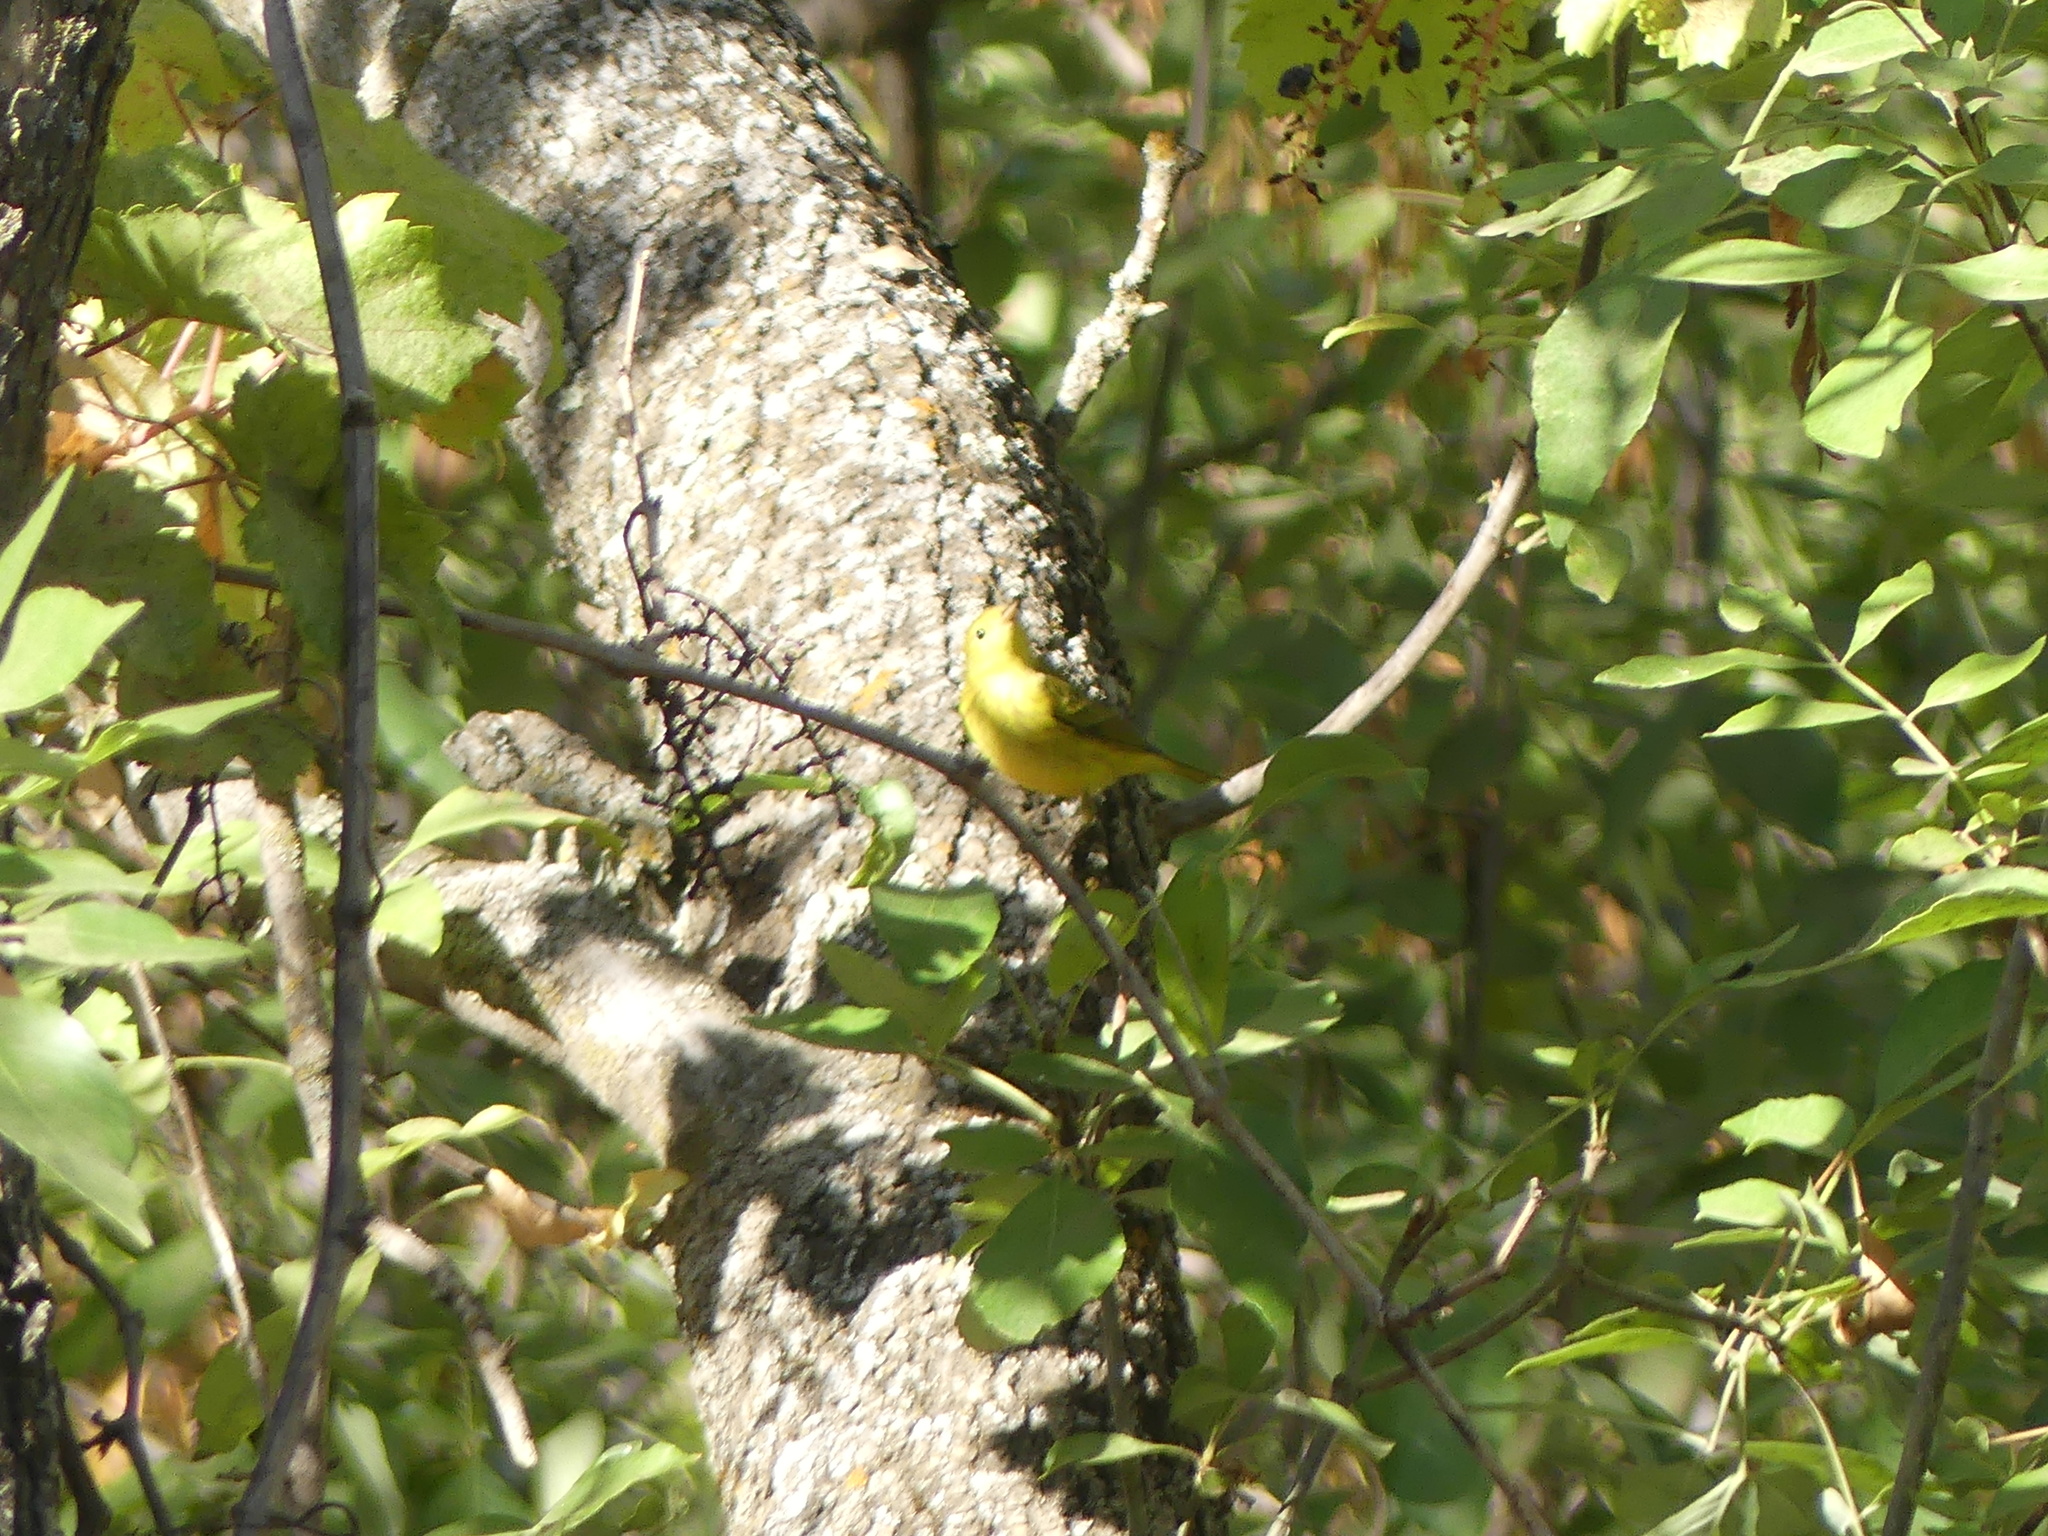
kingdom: Animalia
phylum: Chordata
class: Aves
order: Passeriformes
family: Parulidae
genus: Setophaga
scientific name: Setophaga petechia
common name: Yellow warbler
